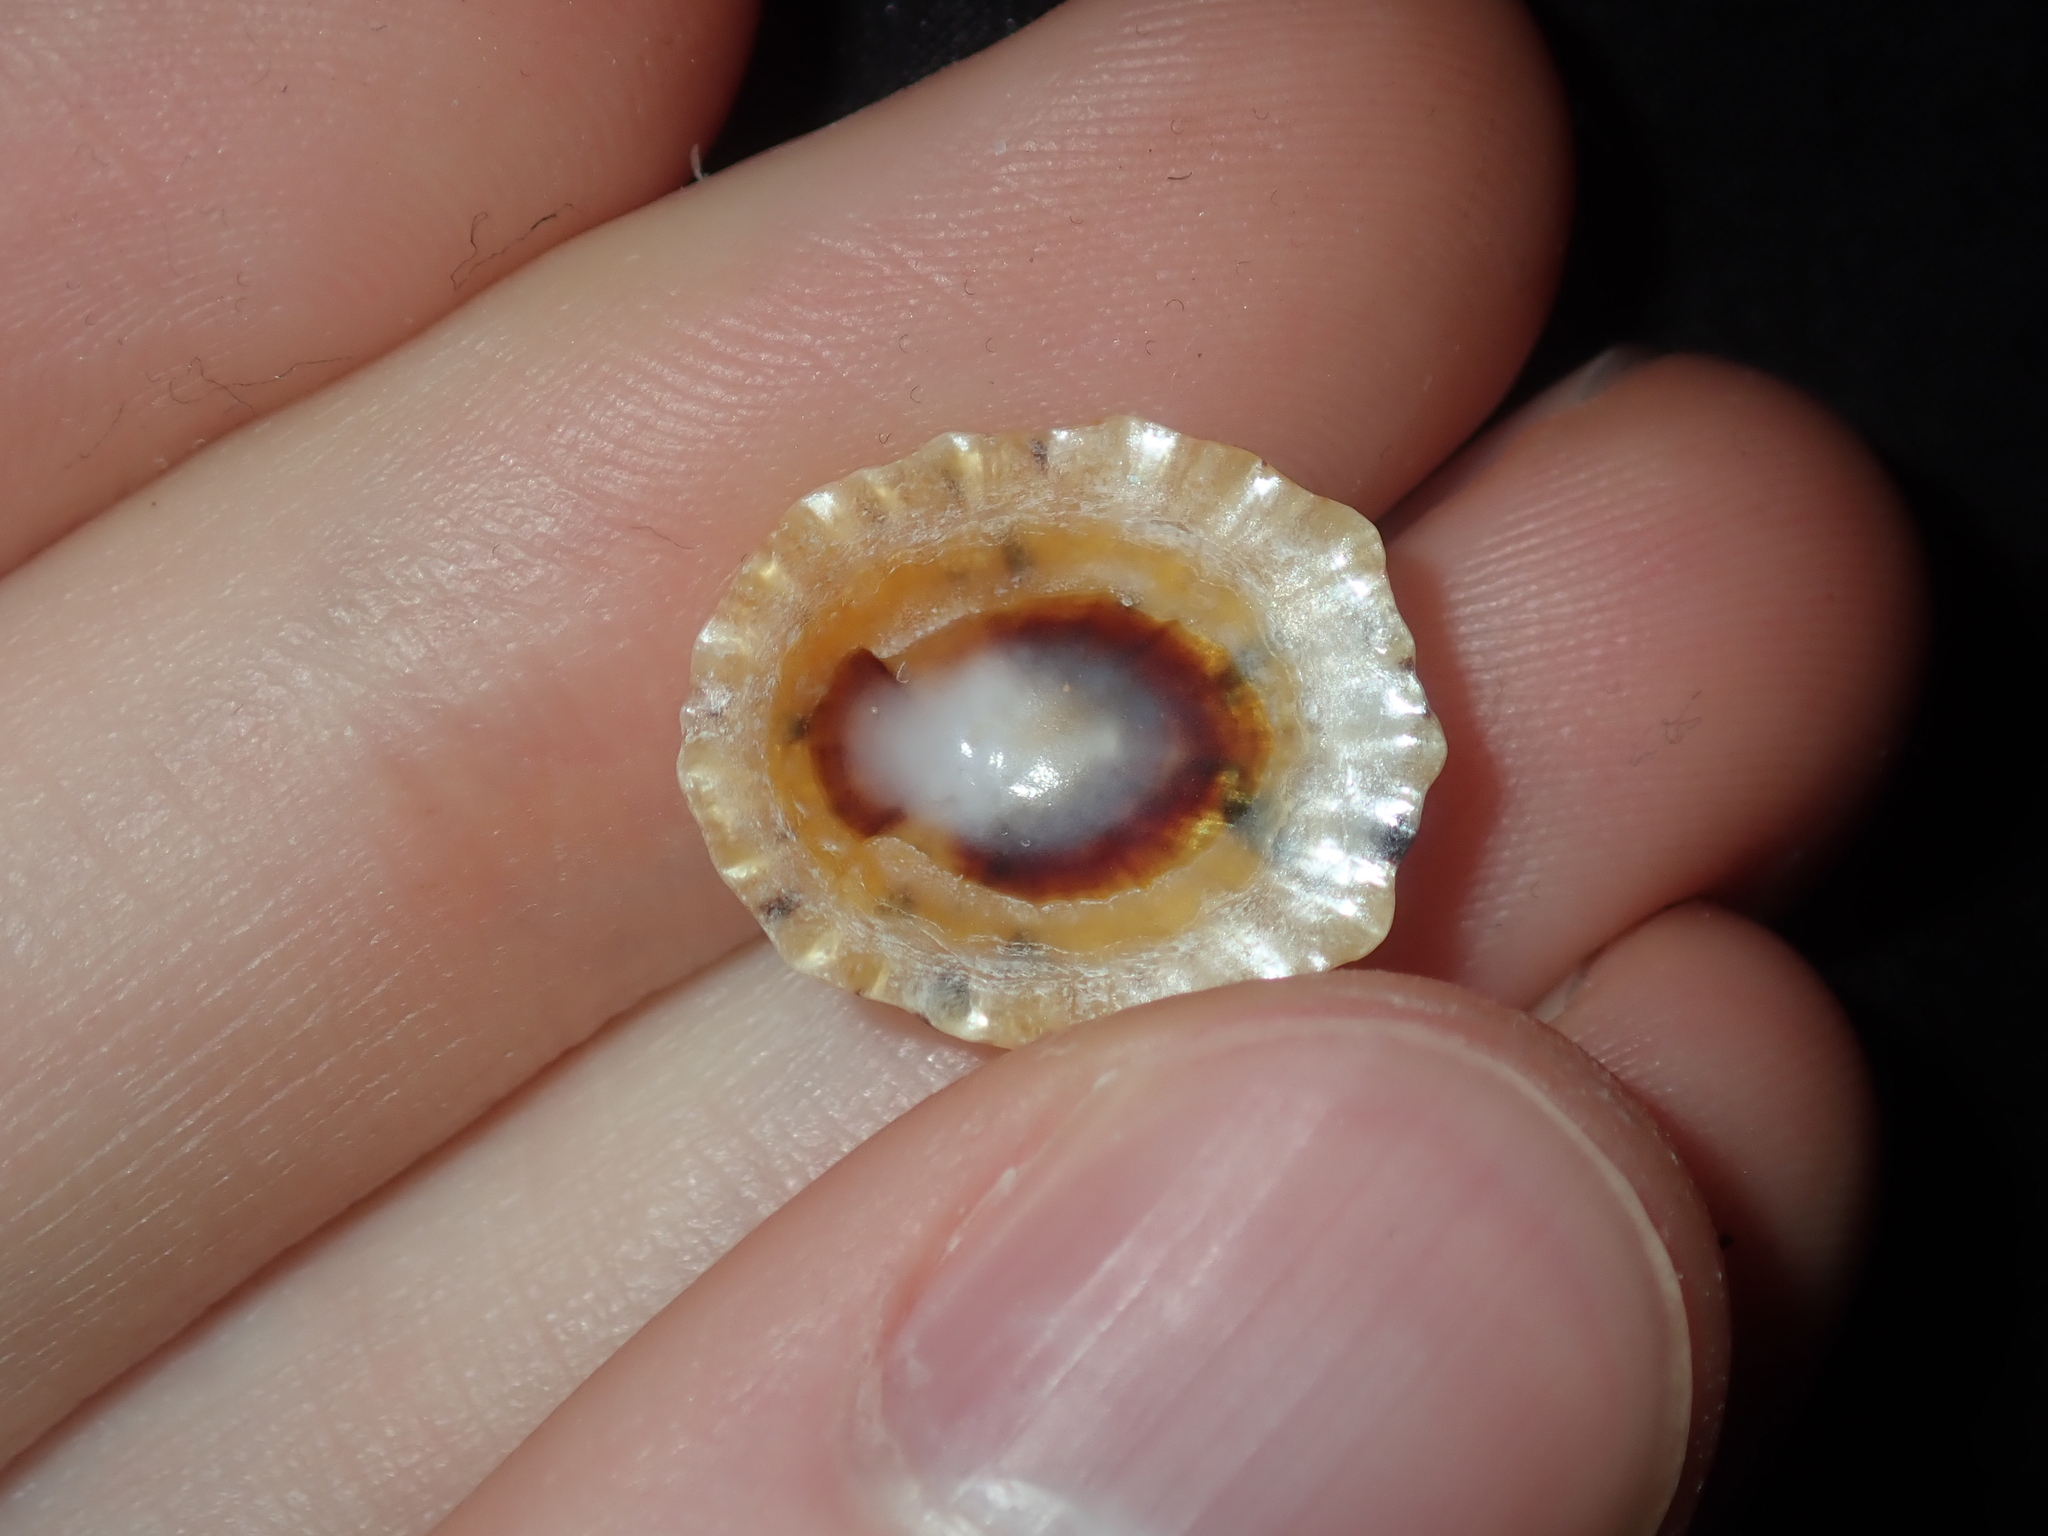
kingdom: Animalia
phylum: Mollusca
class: Gastropoda
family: Nacellidae
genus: Cellana
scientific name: Cellana radiata
